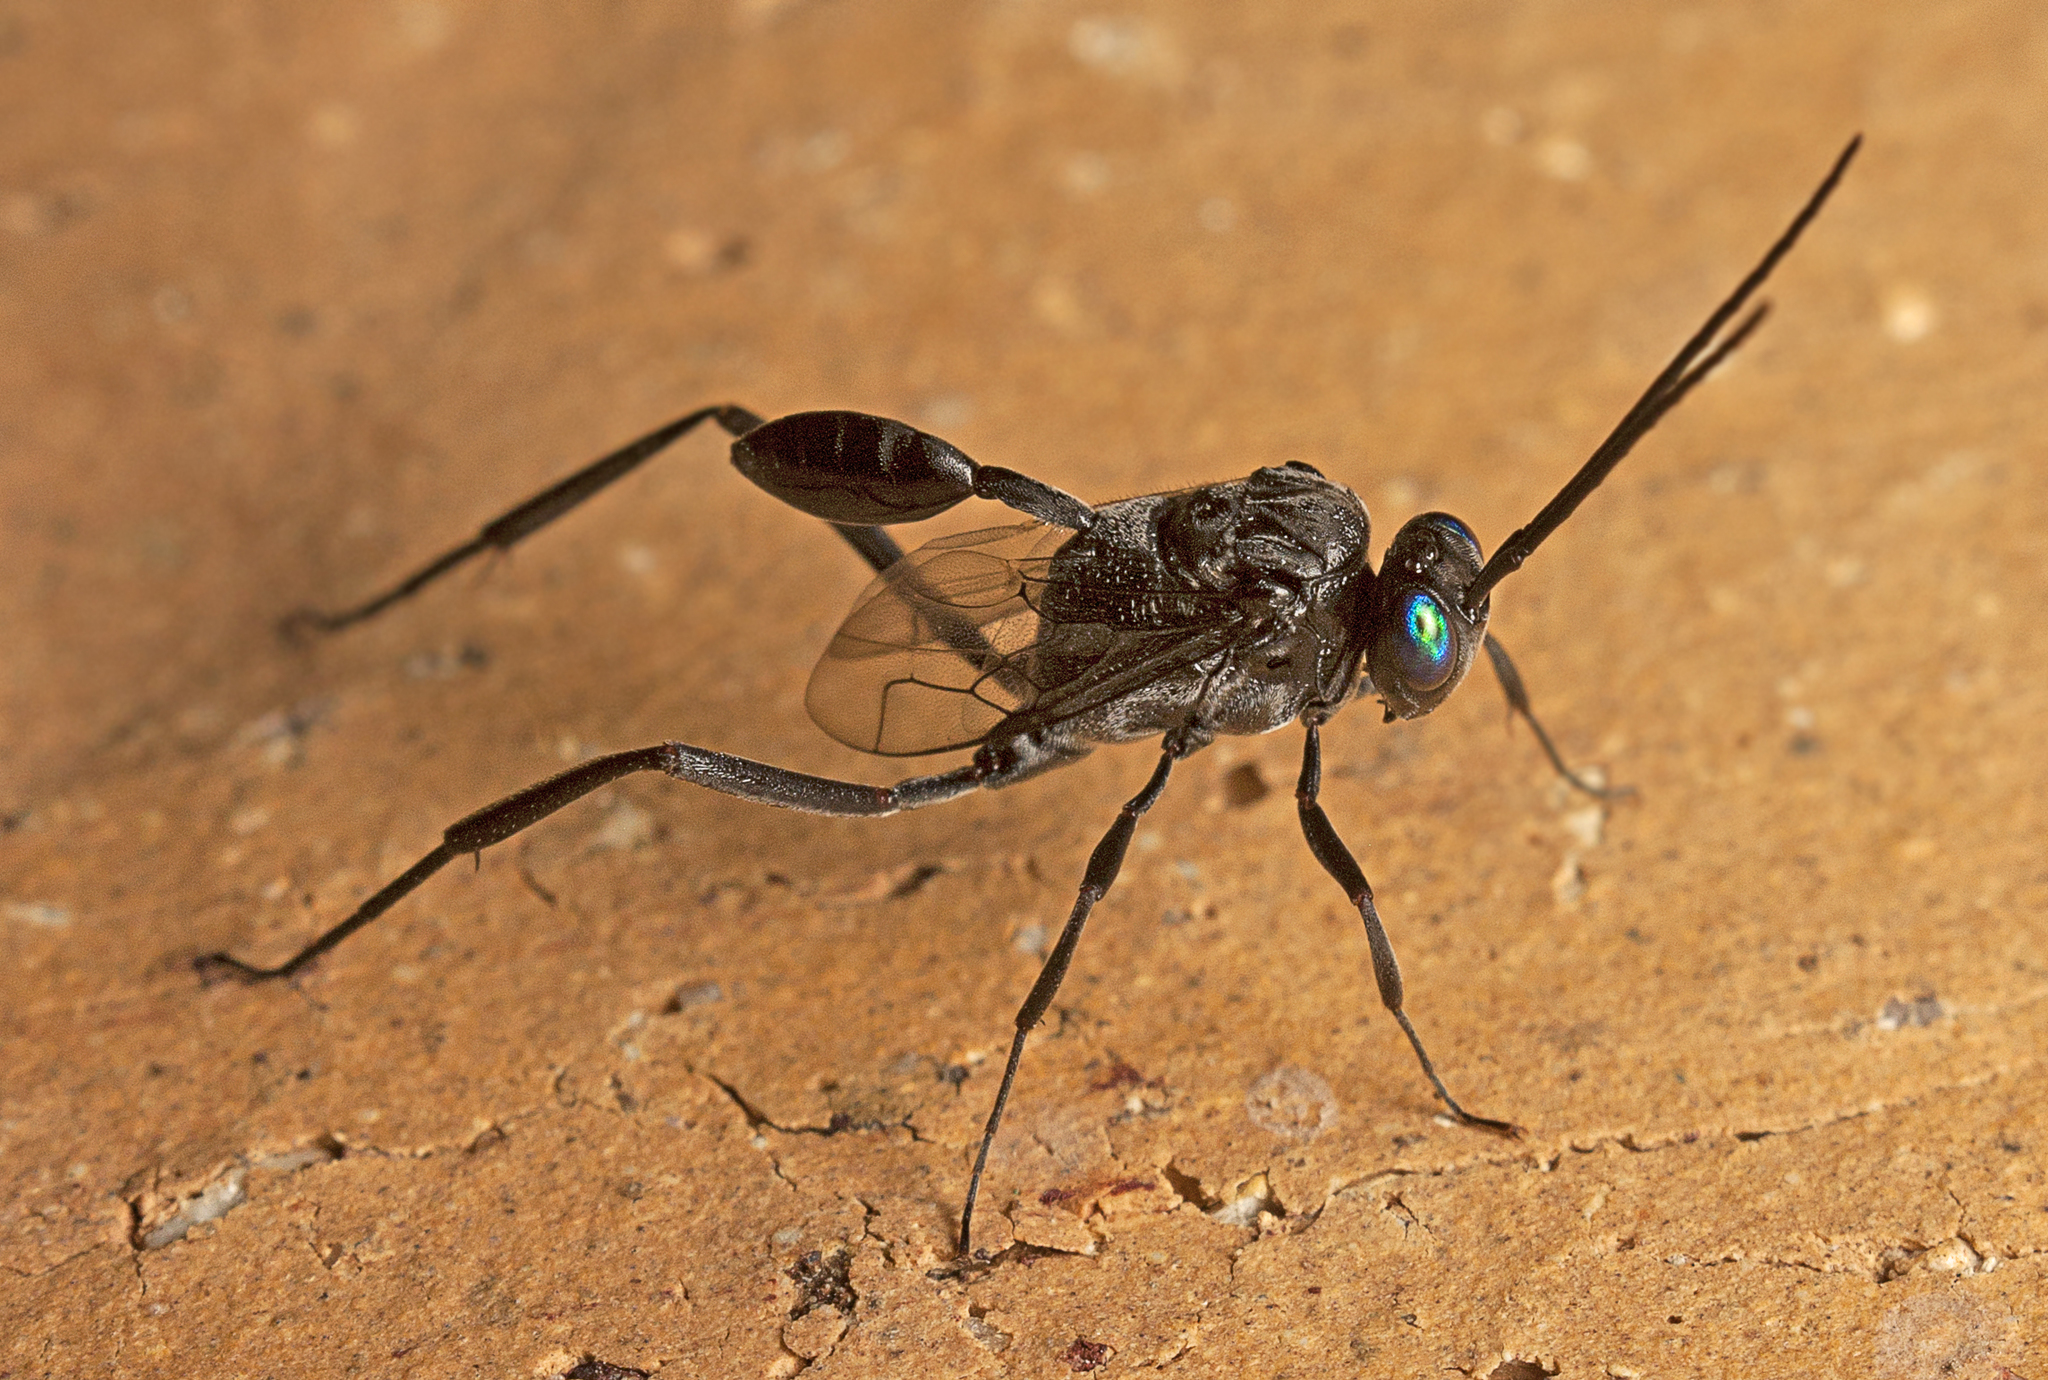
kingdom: Animalia
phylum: Arthropoda
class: Insecta
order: Hymenoptera
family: Evaniidae
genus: Evania
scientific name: Evania appendigaster
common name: Ensign wasp
